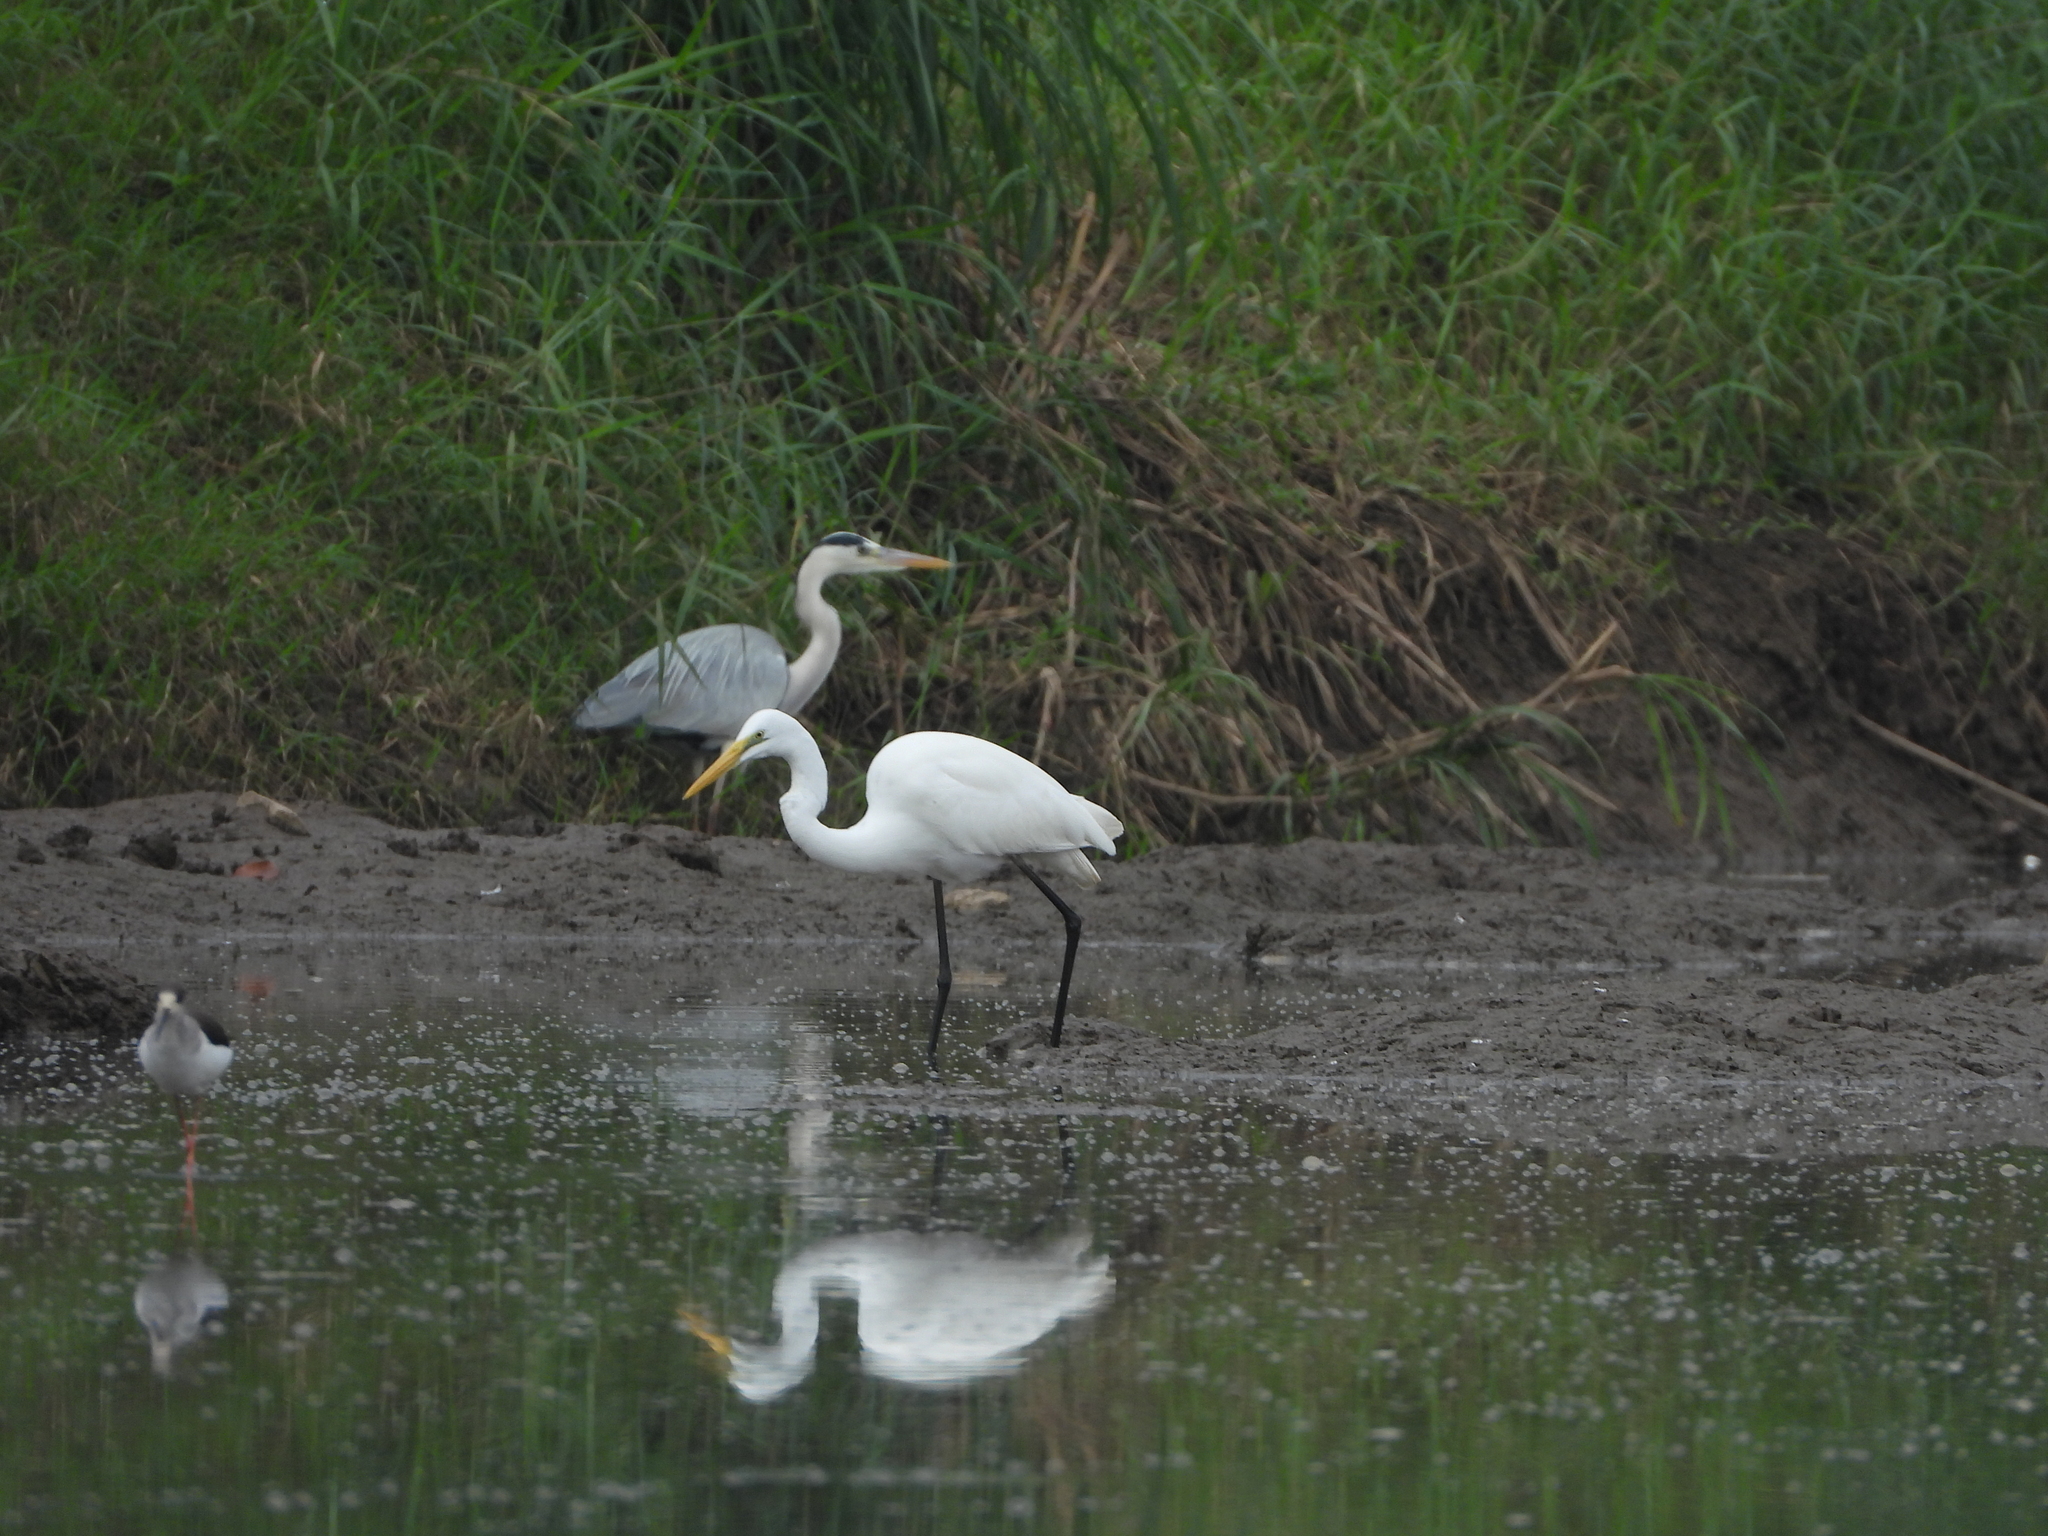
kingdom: Animalia
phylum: Chordata
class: Aves
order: Pelecaniformes
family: Ardeidae
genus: Ardea
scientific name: Ardea alba
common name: Great egret
